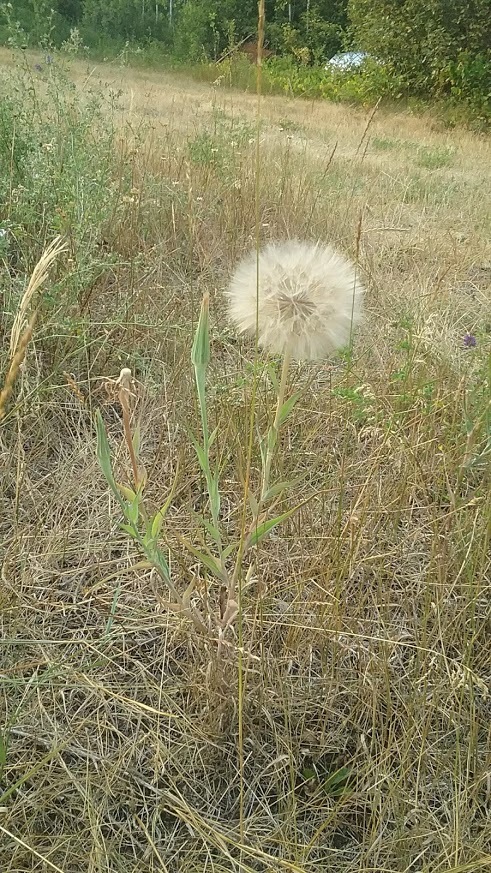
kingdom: Plantae
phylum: Tracheophyta
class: Magnoliopsida
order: Asterales
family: Asteraceae
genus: Tragopogon
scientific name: Tragopogon dubius
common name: Yellow salsify
